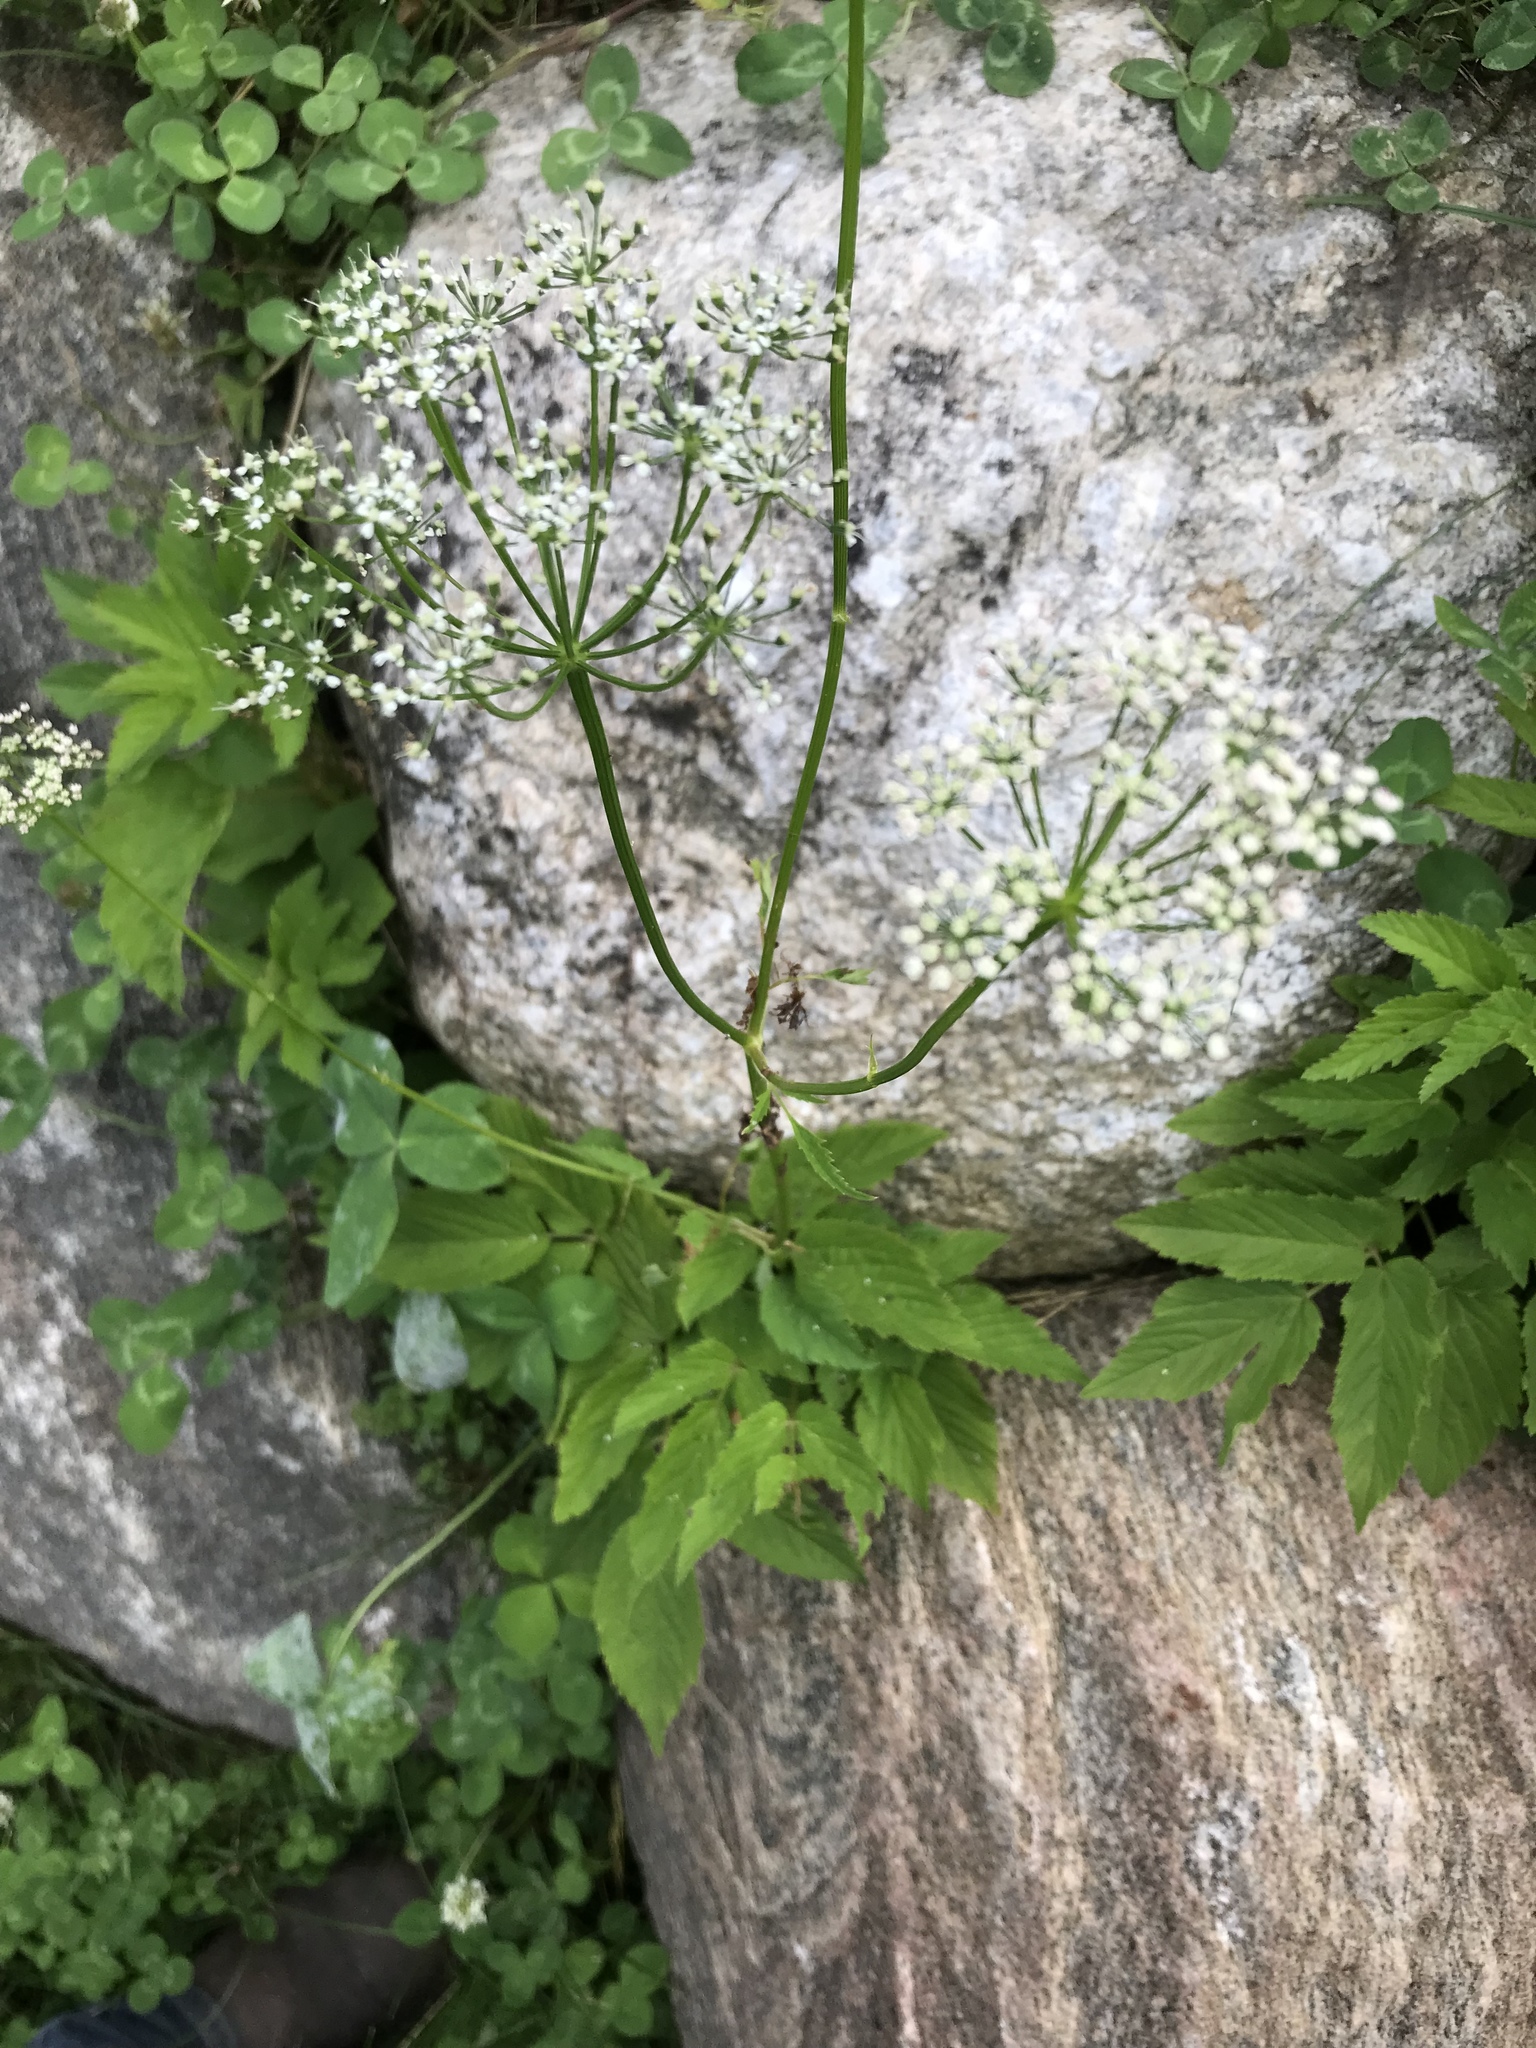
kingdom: Plantae
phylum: Tracheophyta
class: Magnoliopsida
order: Apiales
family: Apiaceae
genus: Aegopodium
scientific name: Aegopodium podagraria
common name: Ground-elder
